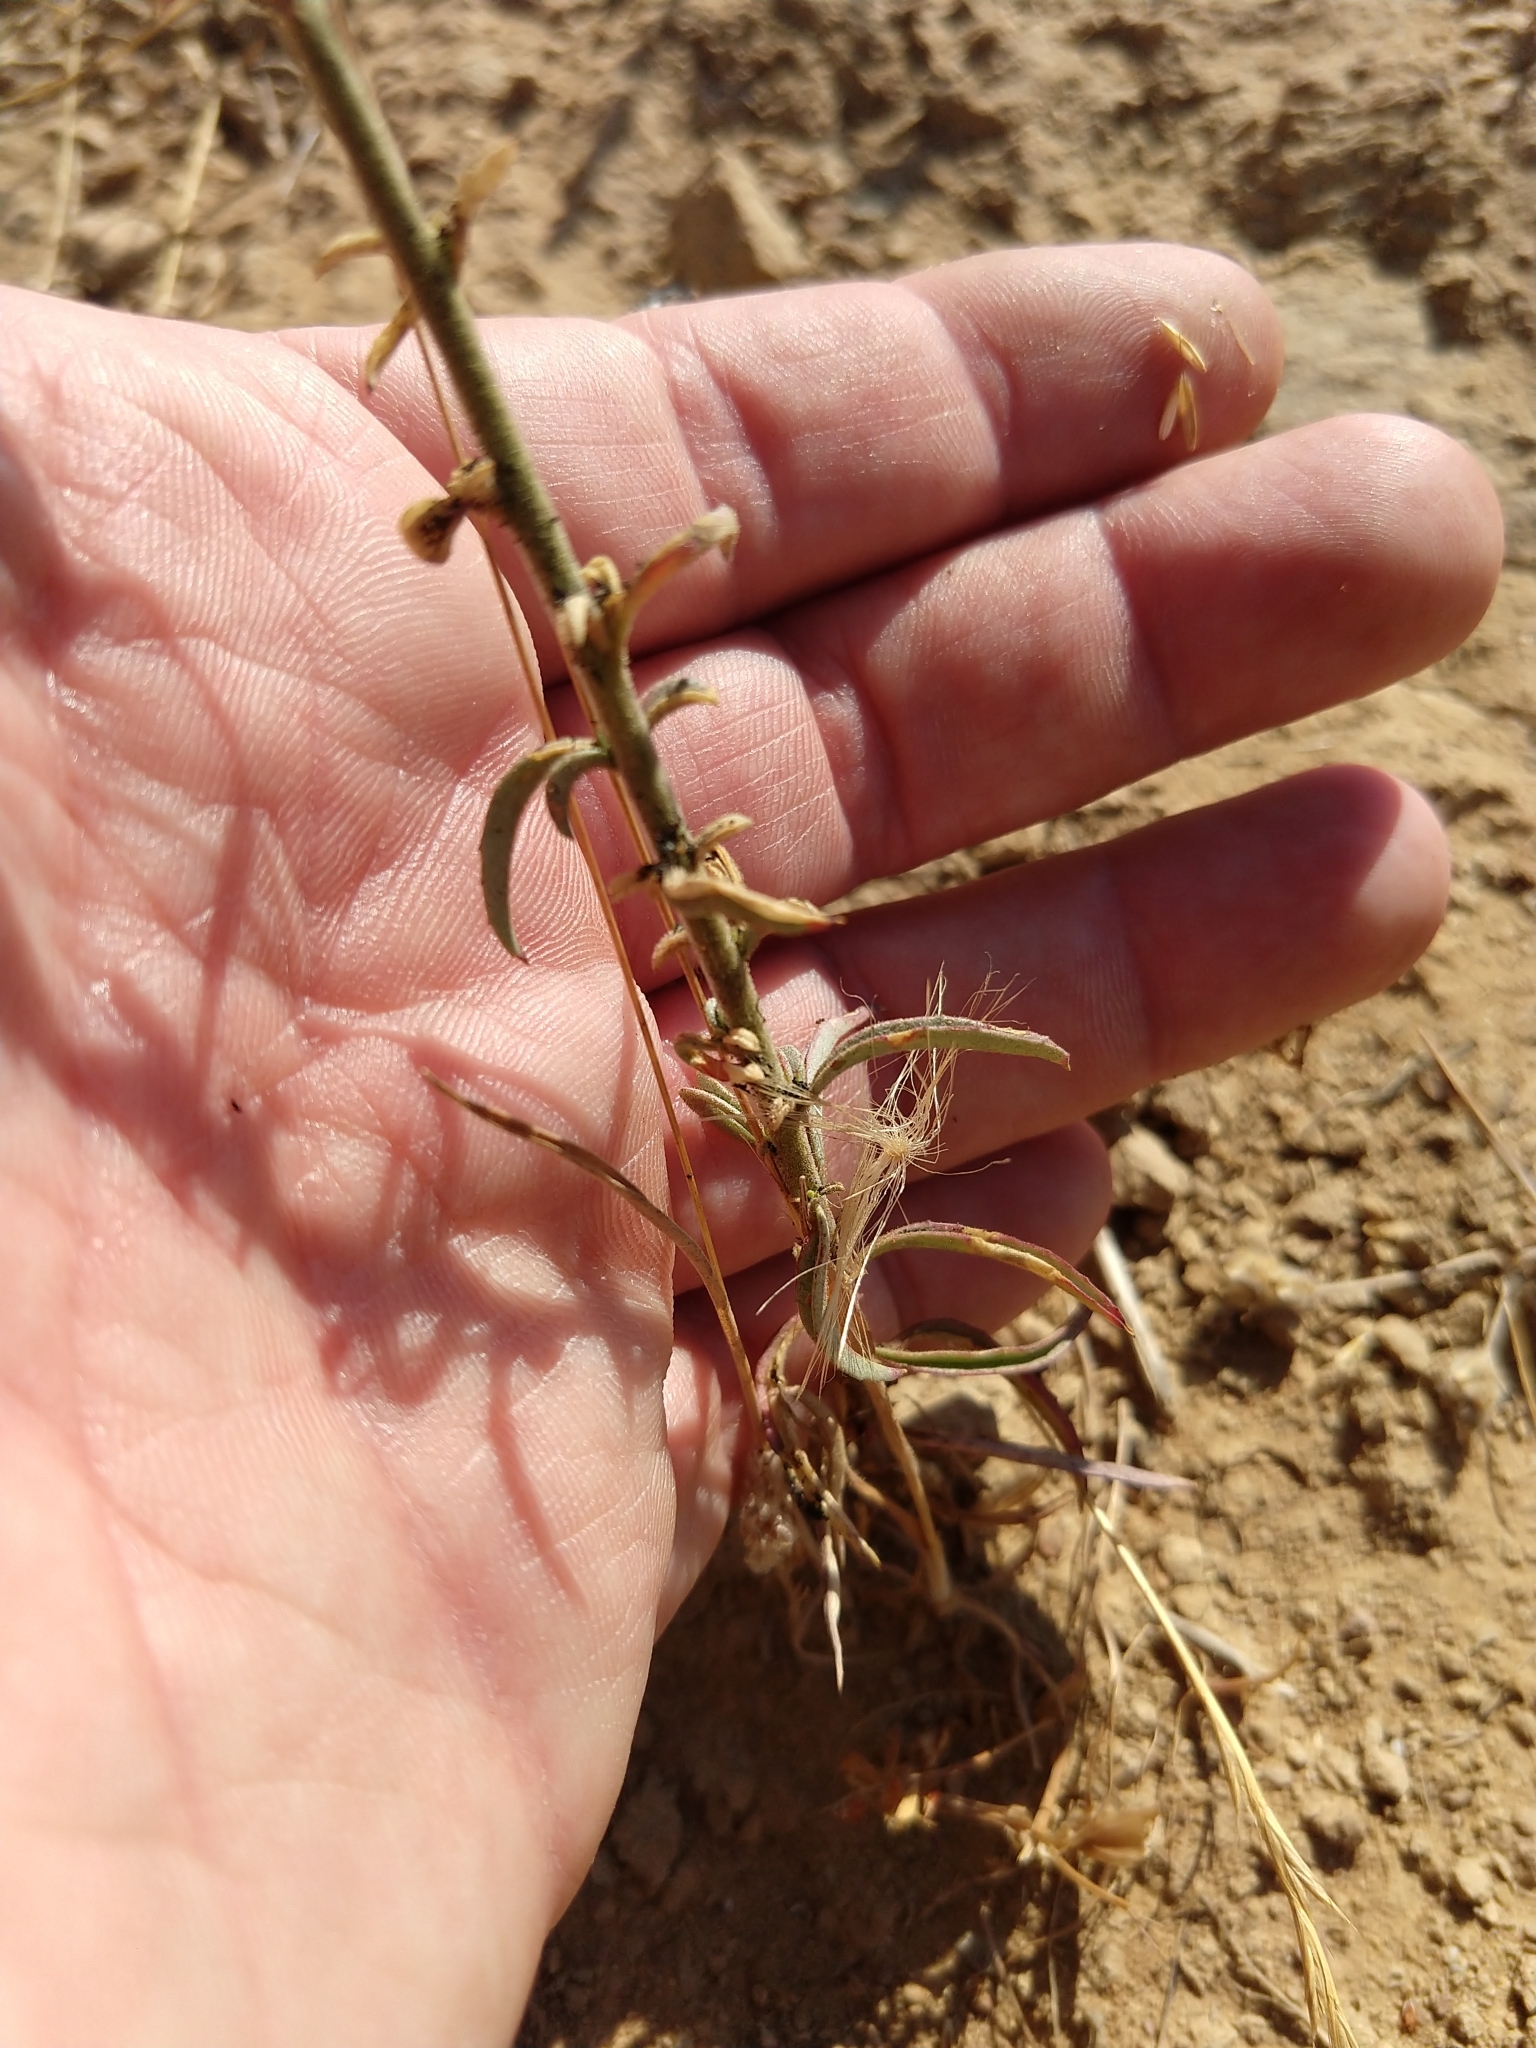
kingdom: Plantae
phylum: Tracheophyta
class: Magnoliopsida
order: Myrtales
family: Onagraceae
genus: Epilobium
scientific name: Epilobium brachycarpum
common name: Annual willowherb
